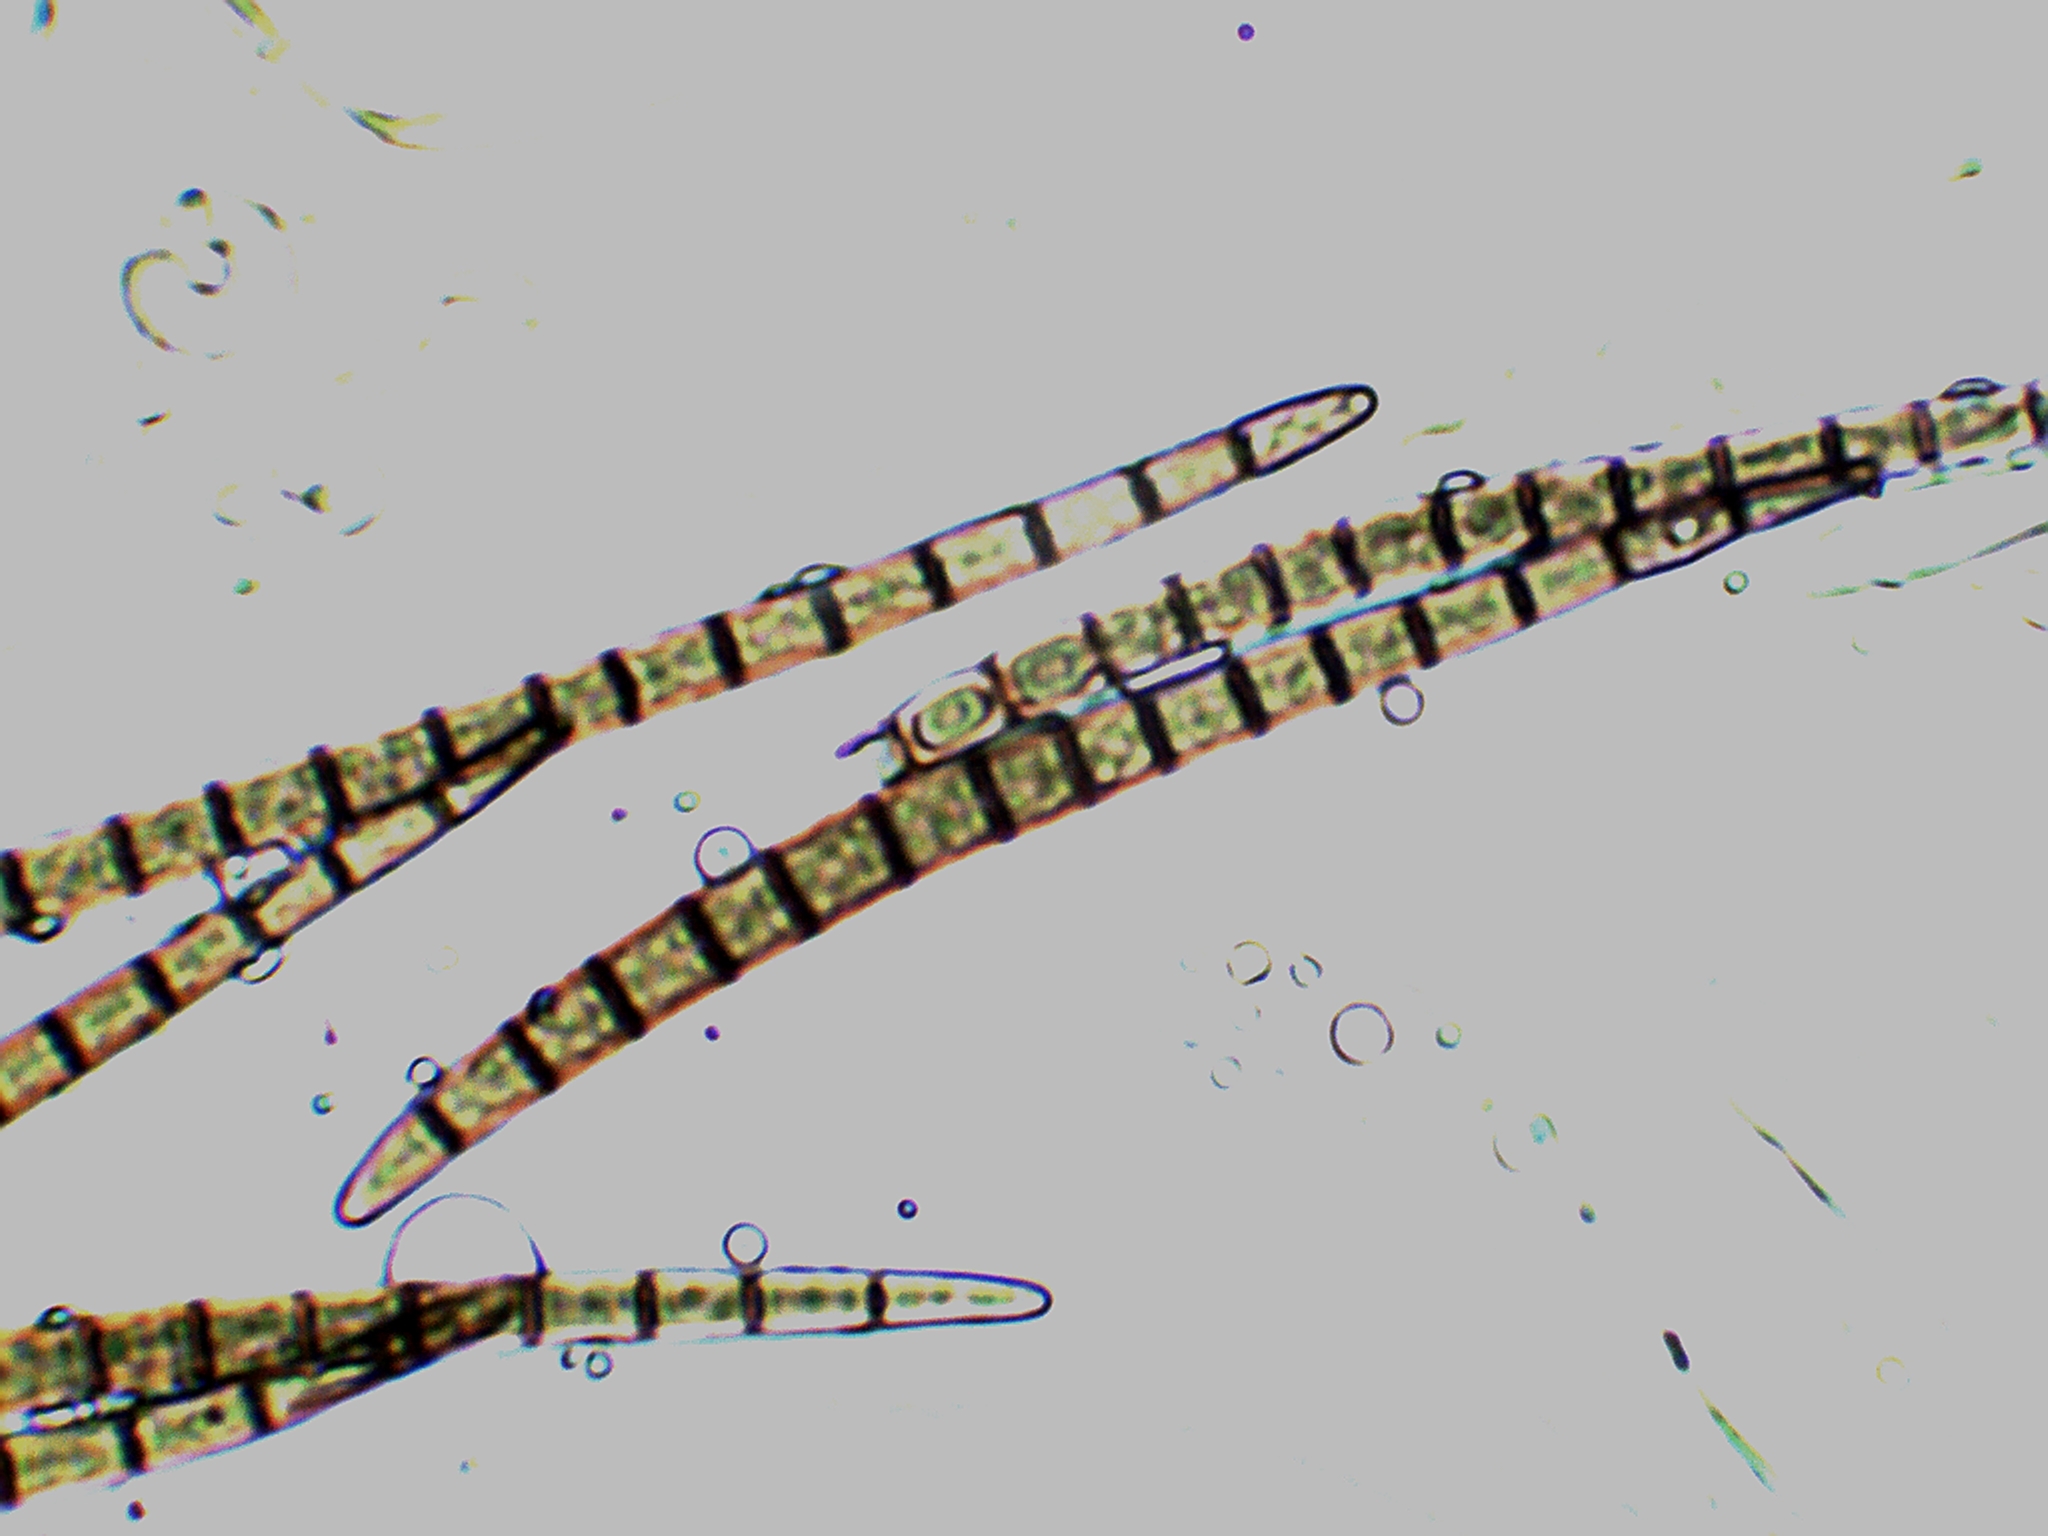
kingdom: Fungi
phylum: Ascomycota
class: Geoglossomycetes
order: Geoglossales
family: Geoglossaceae
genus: Geoglossum
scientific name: Geoglossum difforme
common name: Slimy earthtongue
